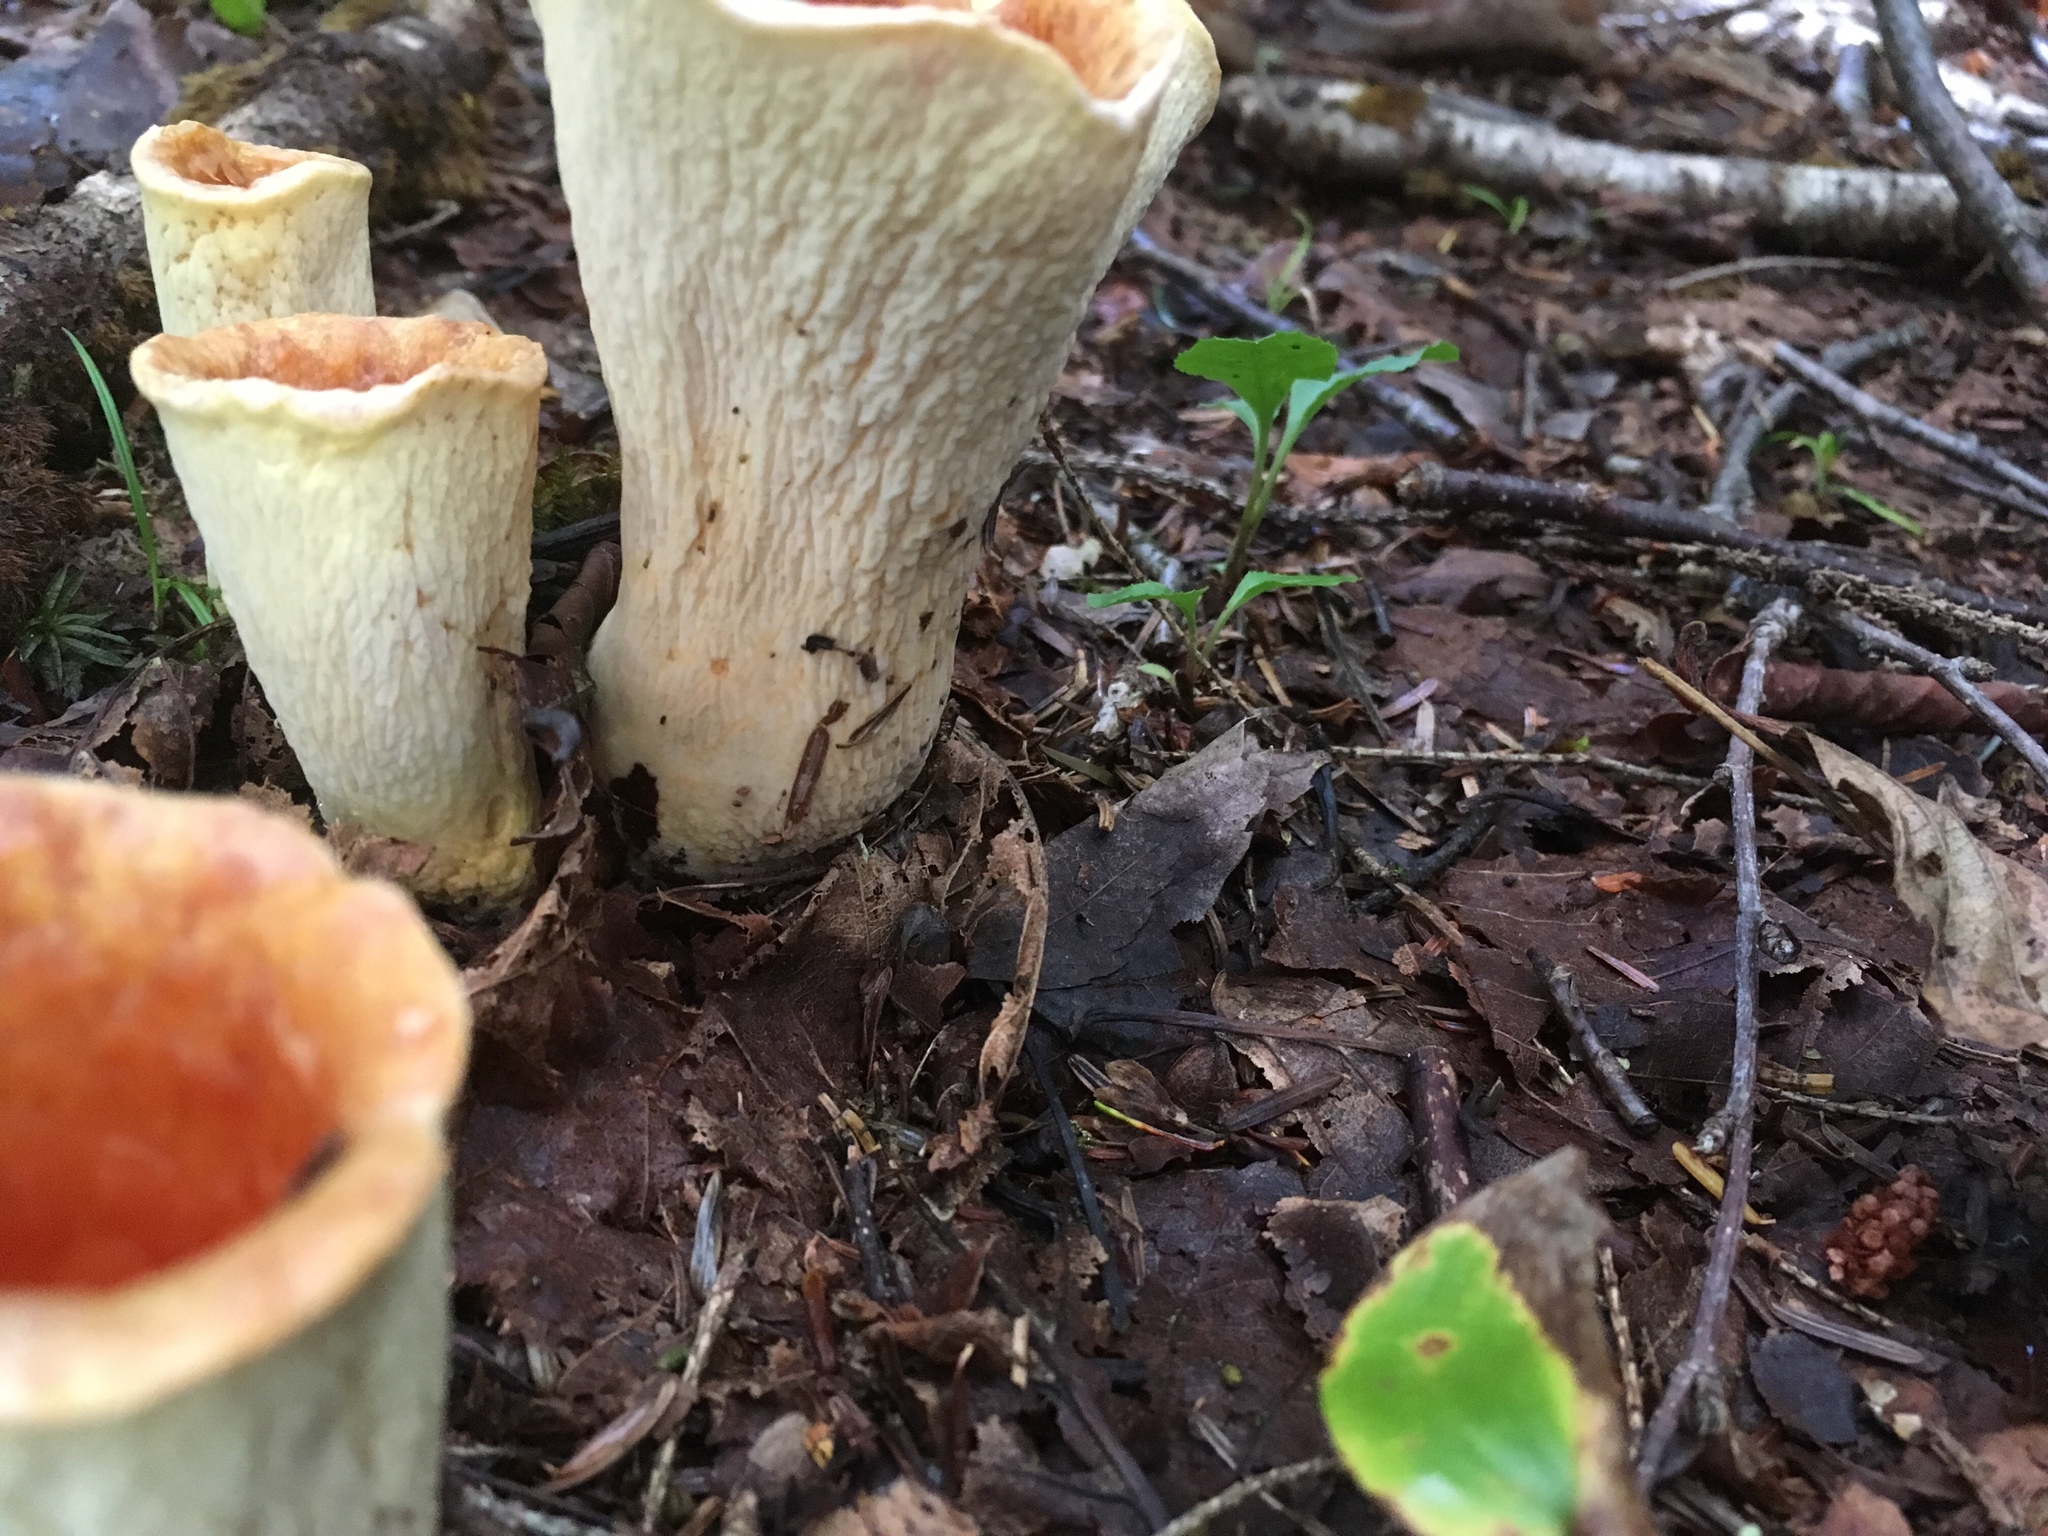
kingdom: Fungi
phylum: Basidiomycota
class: Agaricomycetes
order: Gomphales
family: Gomphaceae
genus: Turbinellus
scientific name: Turbinellus floccosus
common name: Scaly chanterelle
